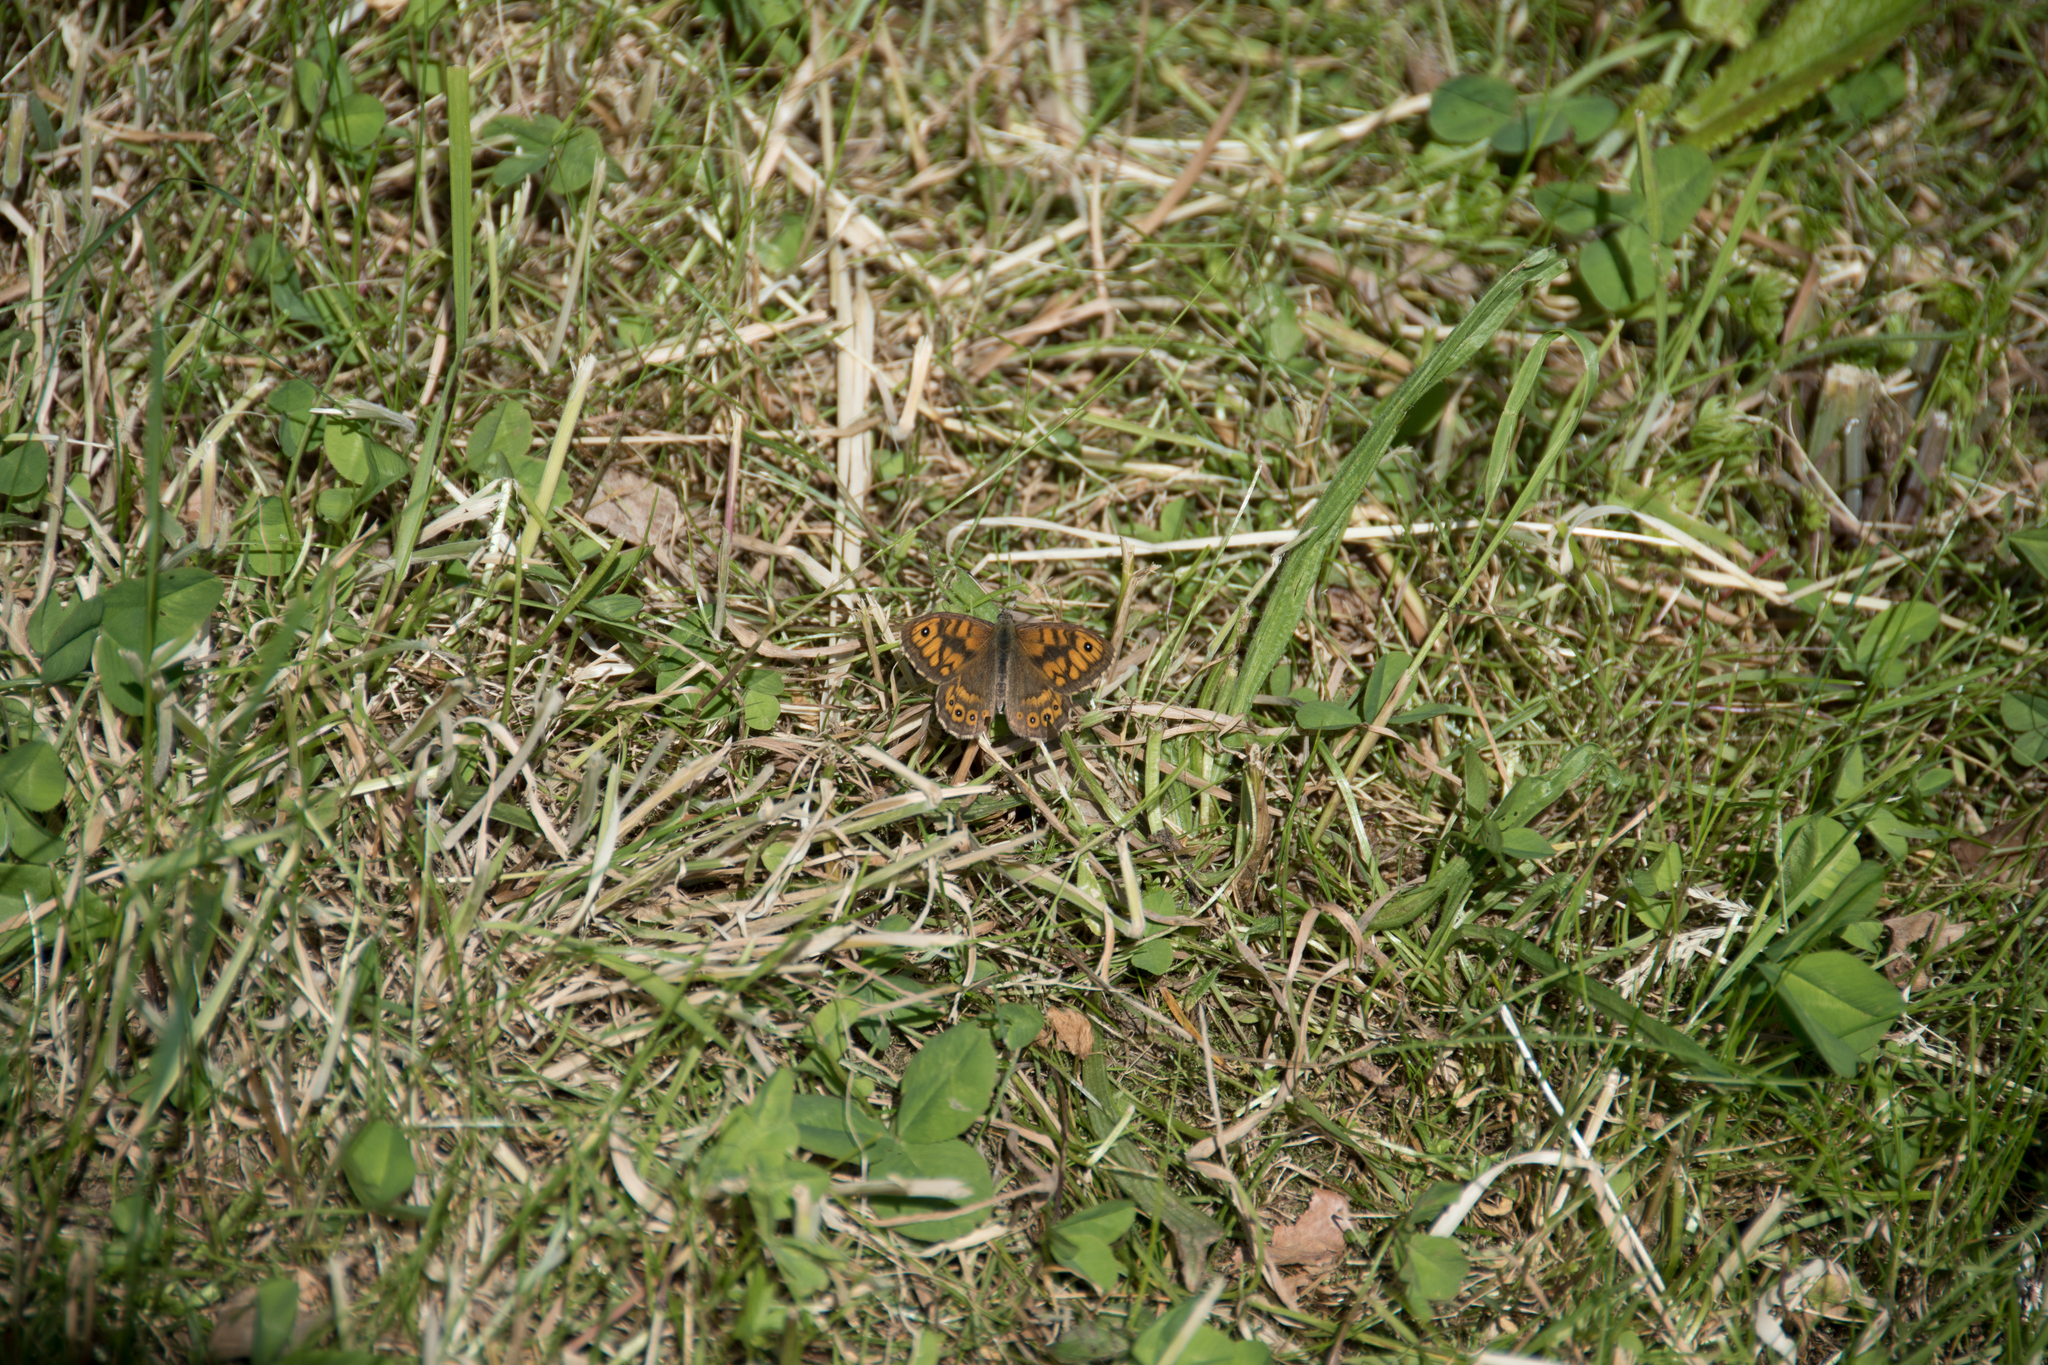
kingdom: Animalia
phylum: Arthropoda
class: Insecta
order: Lepidoptera
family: Nymphalidae
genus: Pararge
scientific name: Pararge Lasiommata megera
